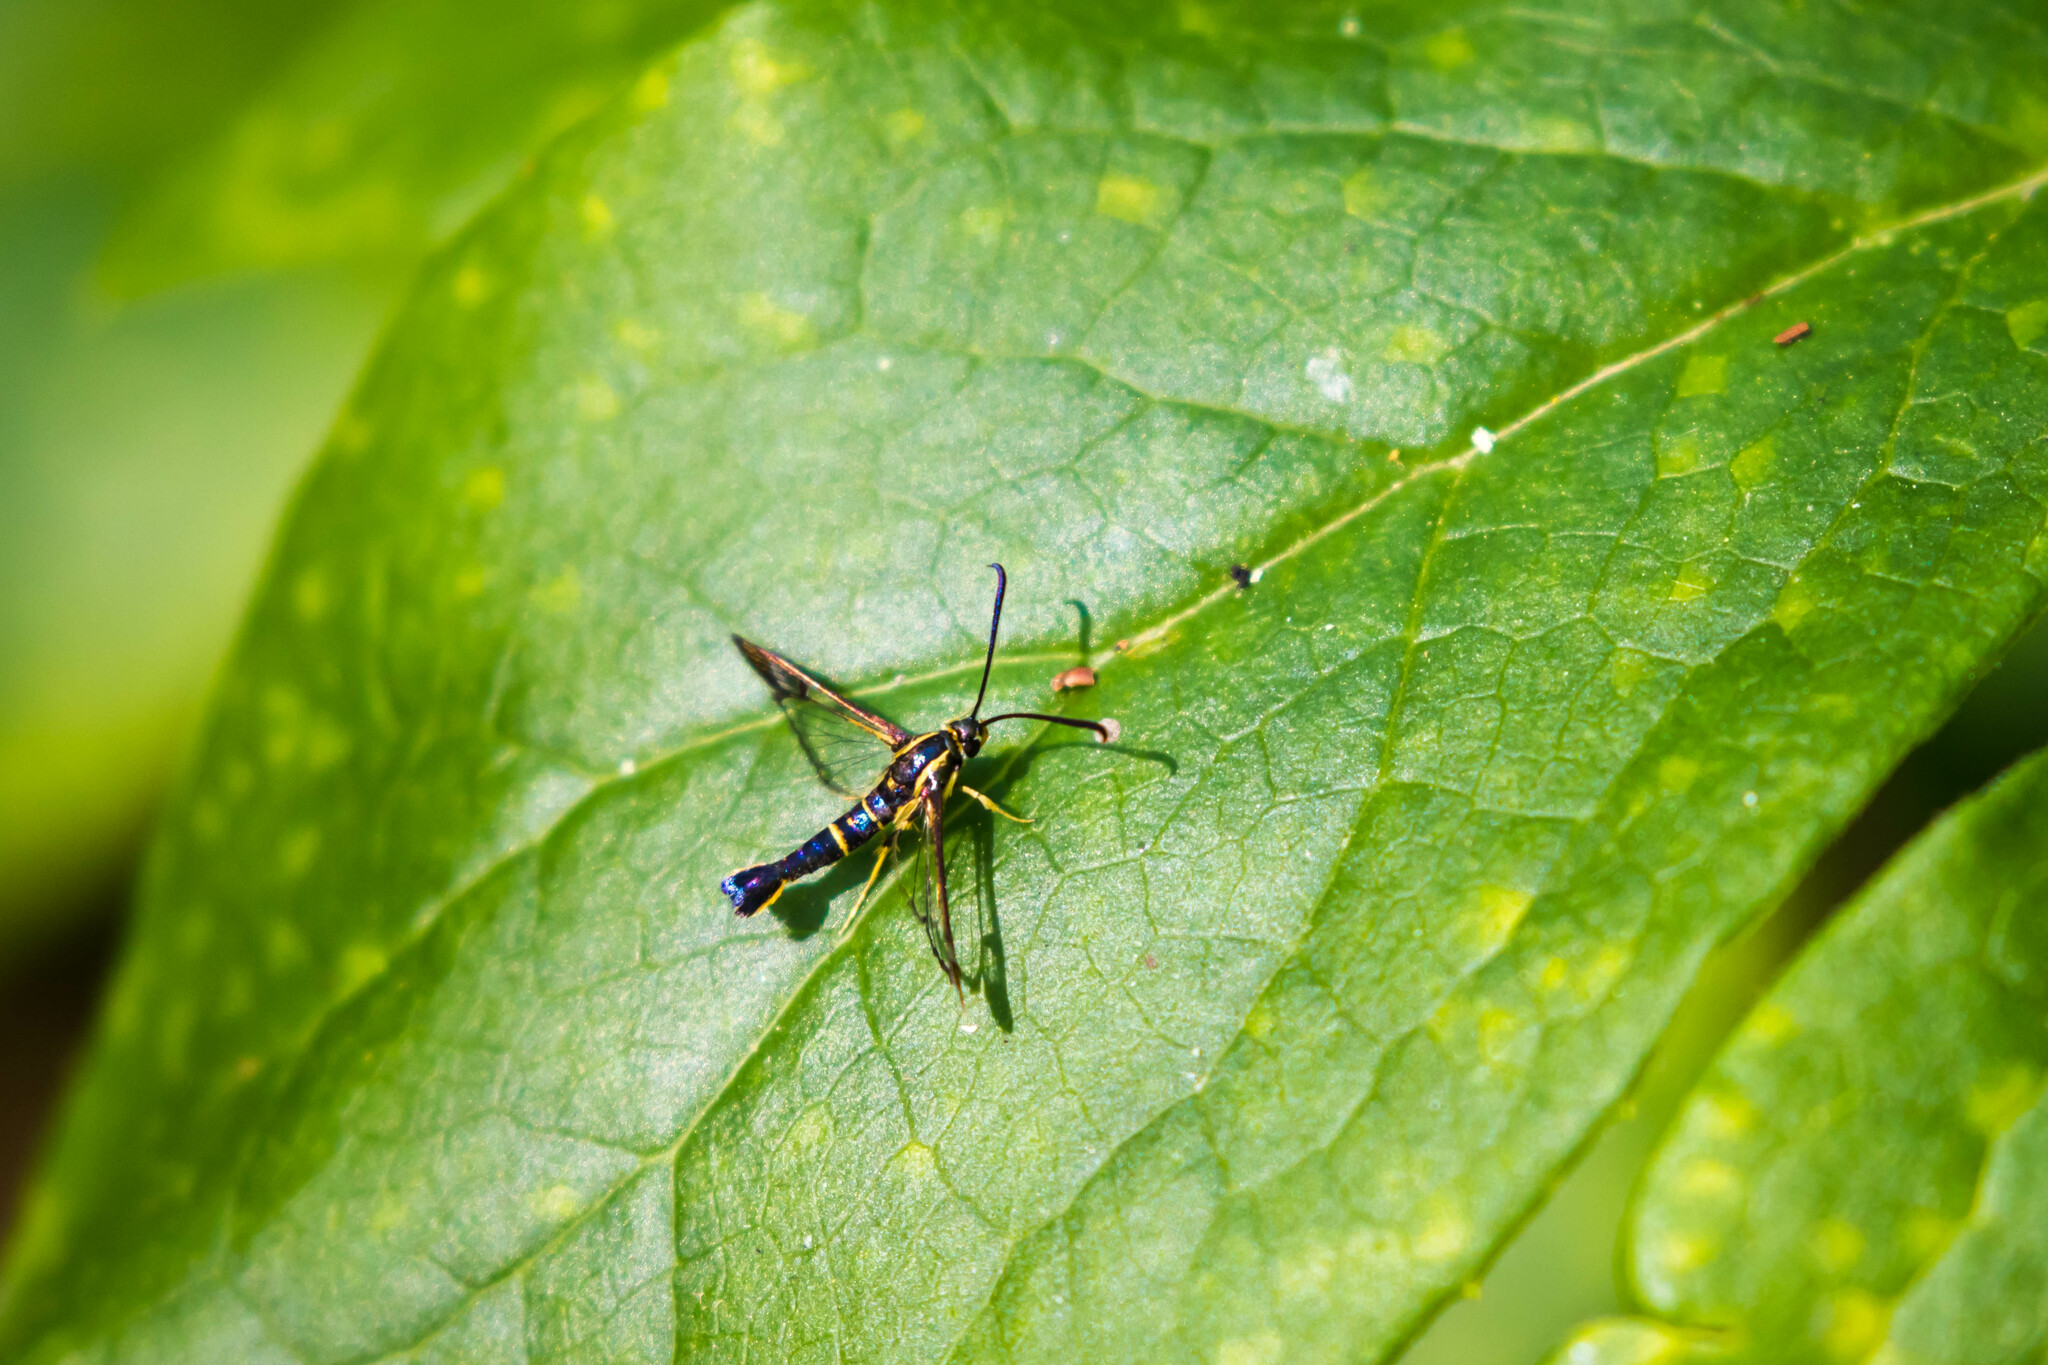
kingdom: Animalia
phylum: Arthropoda
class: Insecta
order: Lepidoptera
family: Sesiidae
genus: Synanthedon
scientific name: Synanthedon scitula
